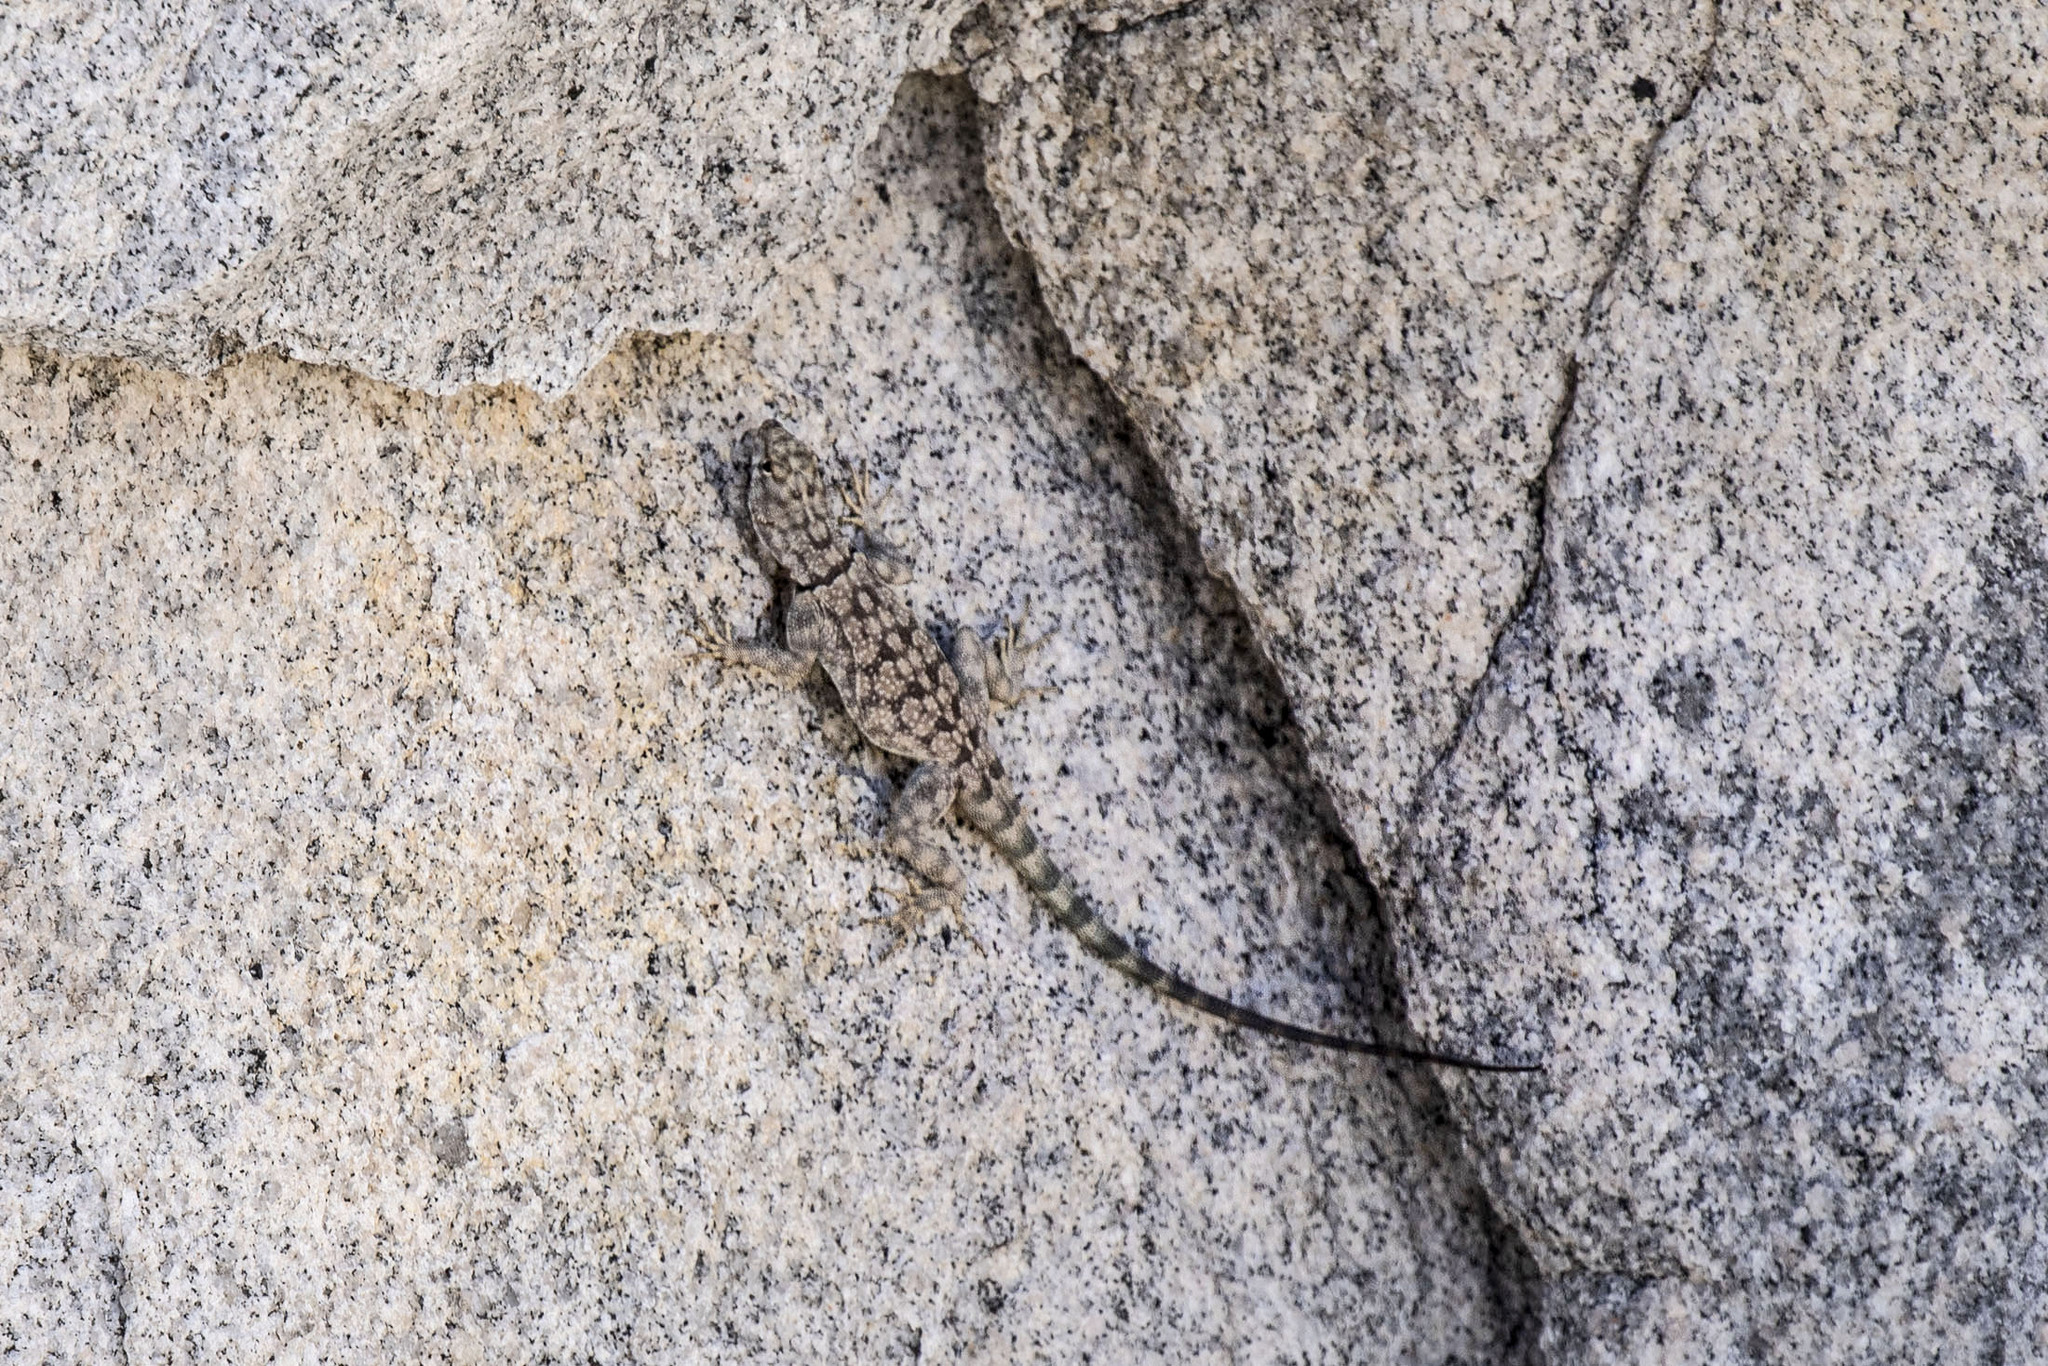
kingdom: Animalia
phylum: Chordata
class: Squamata
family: Phrynosomatidae
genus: Petrosaurus
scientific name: Petrosaurus mearnsi
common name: Banded rock lizard
